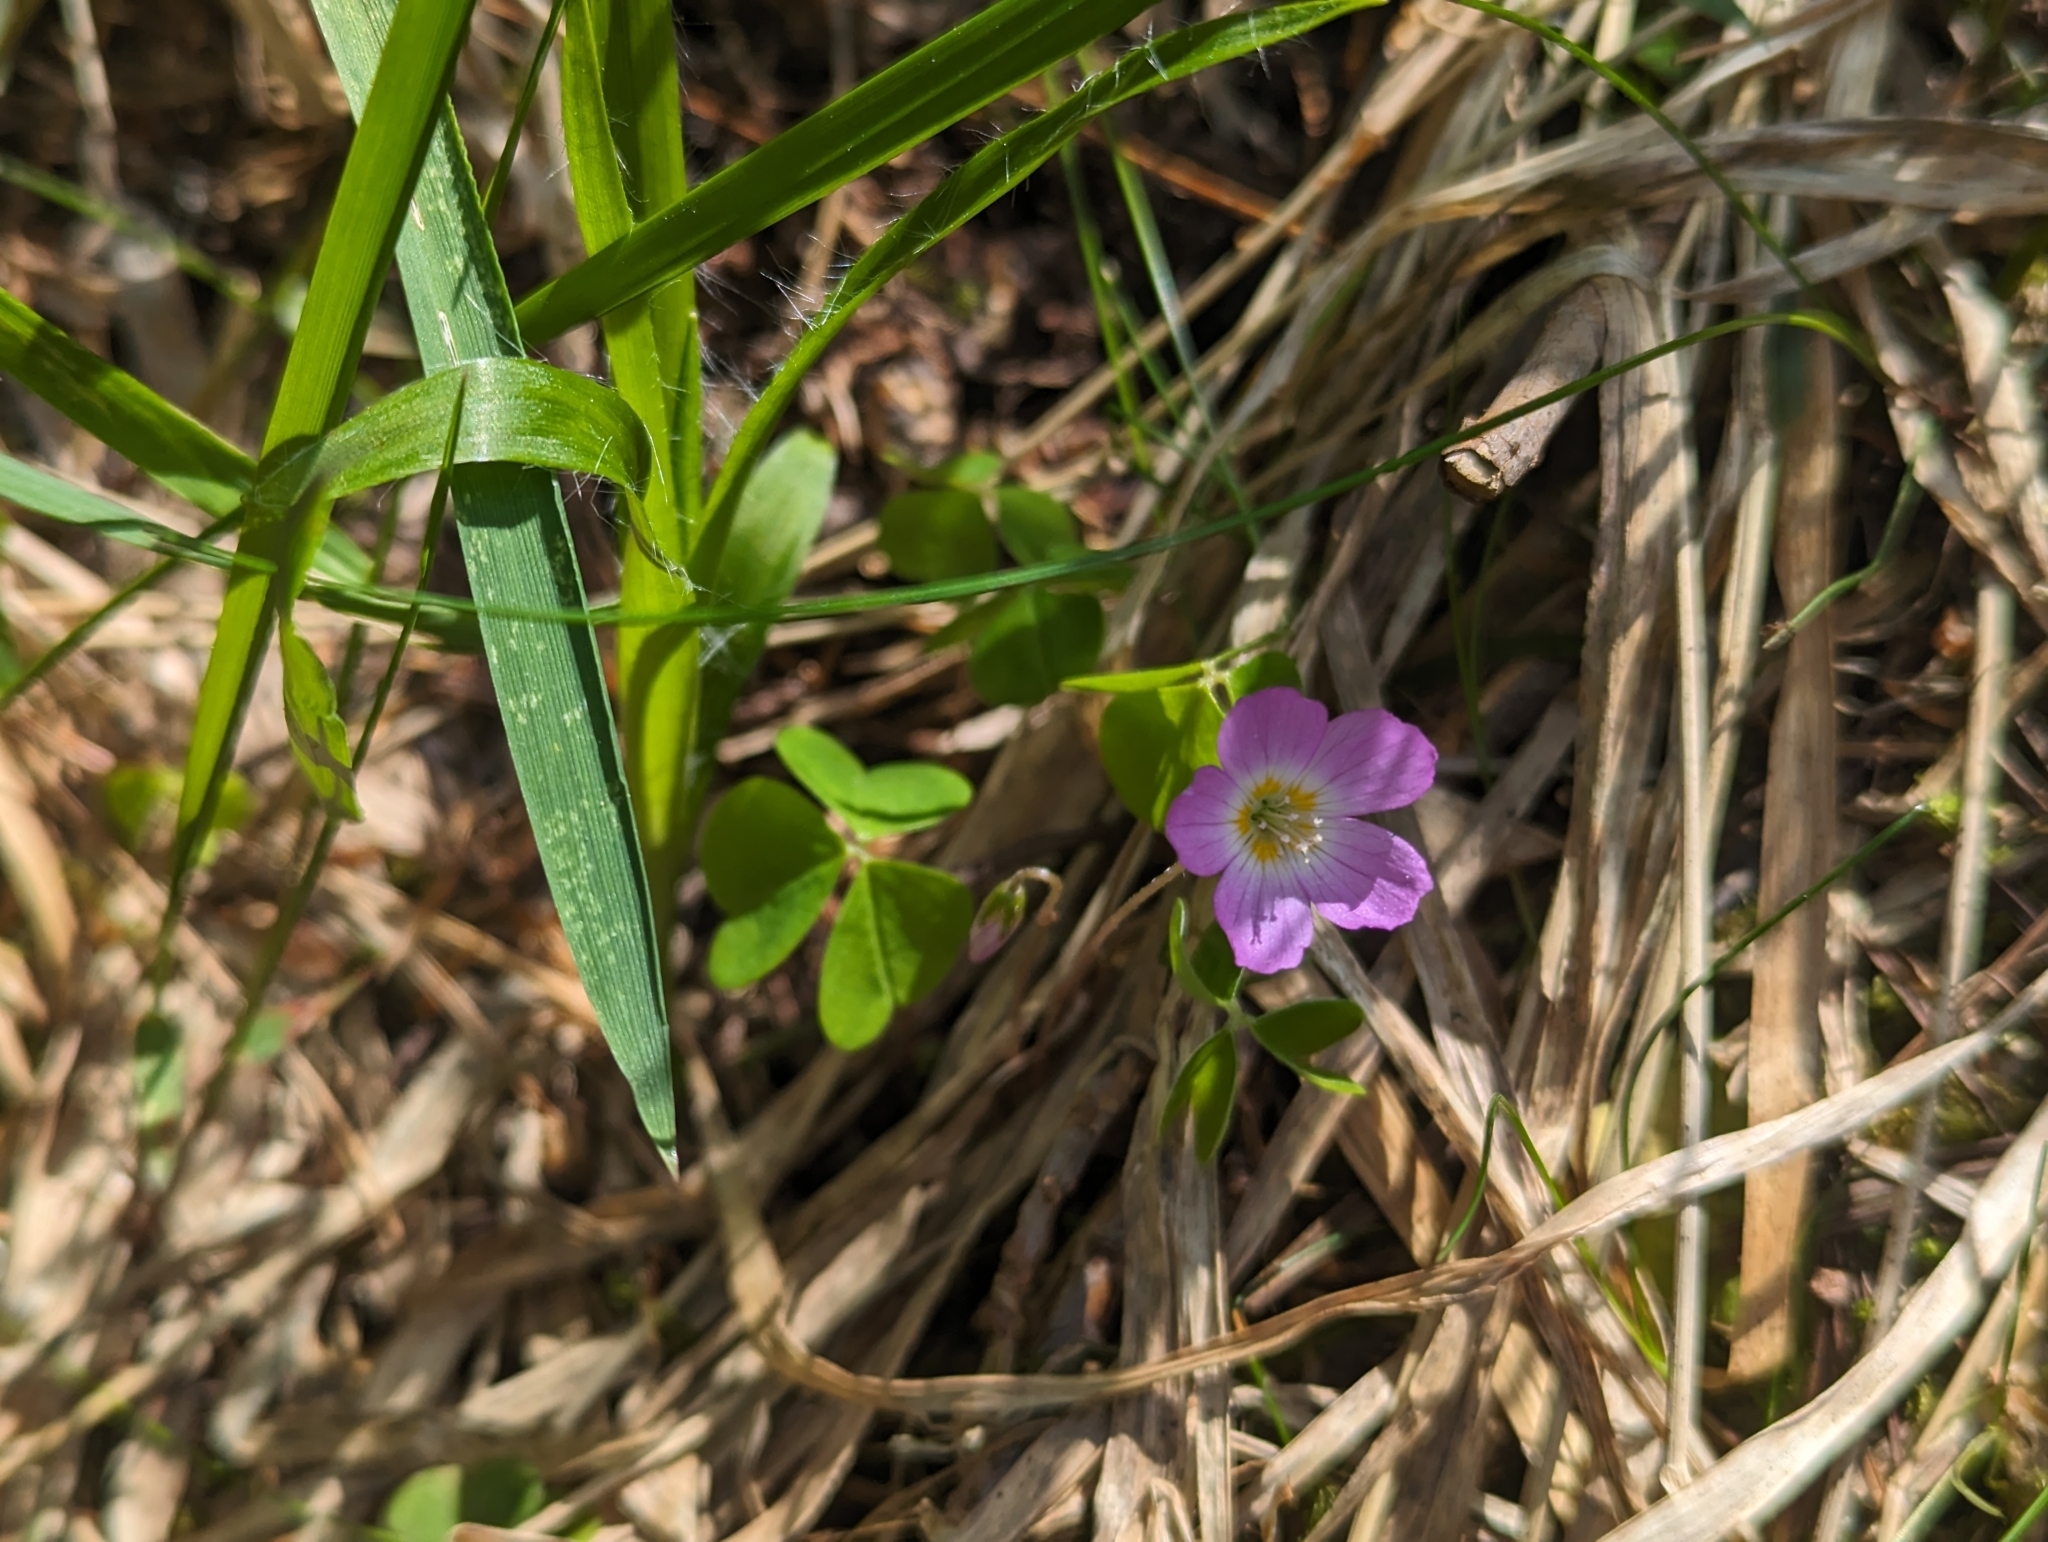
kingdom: Plantae
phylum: Tracheophyta
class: Magnoliopsida
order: Oxalidales
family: Oxalidaceae
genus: Oxalis
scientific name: Oxalis acetosella
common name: Wood-sorrel
